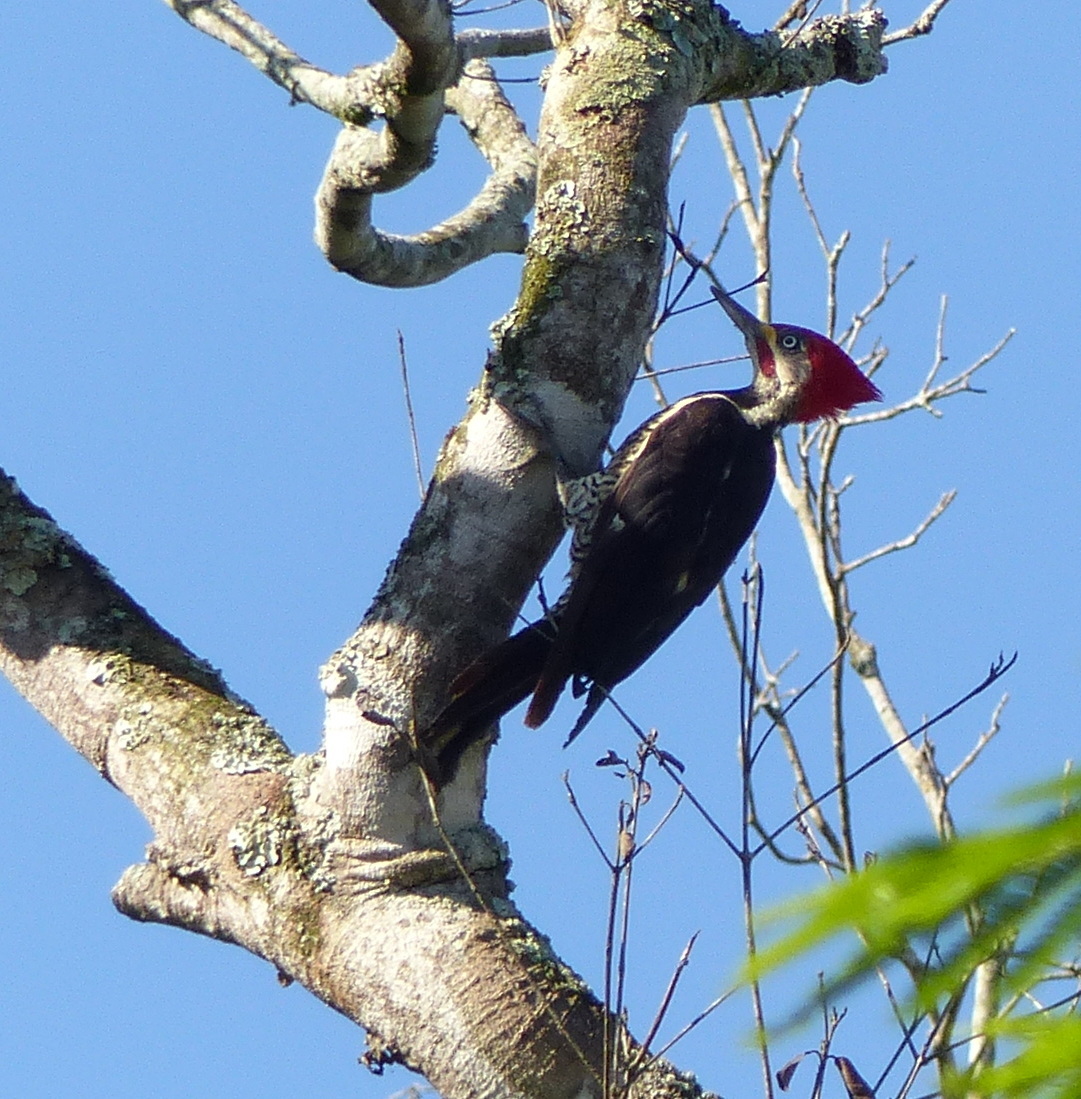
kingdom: Animalia
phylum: Chordata
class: Aves
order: Piciformes
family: Picidae
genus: Dryocopus
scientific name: Dryocopus lineatus
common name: Lineated woodpecker
